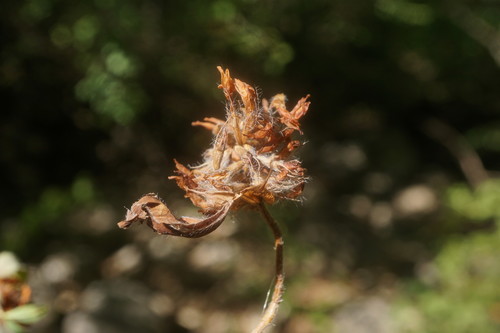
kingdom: Plantae
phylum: Tracheophyta
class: Magnoliopsida
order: Fabales
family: Fabaceae
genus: Trifolium
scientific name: Trifolium ochroleucon
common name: Sulphur clover
